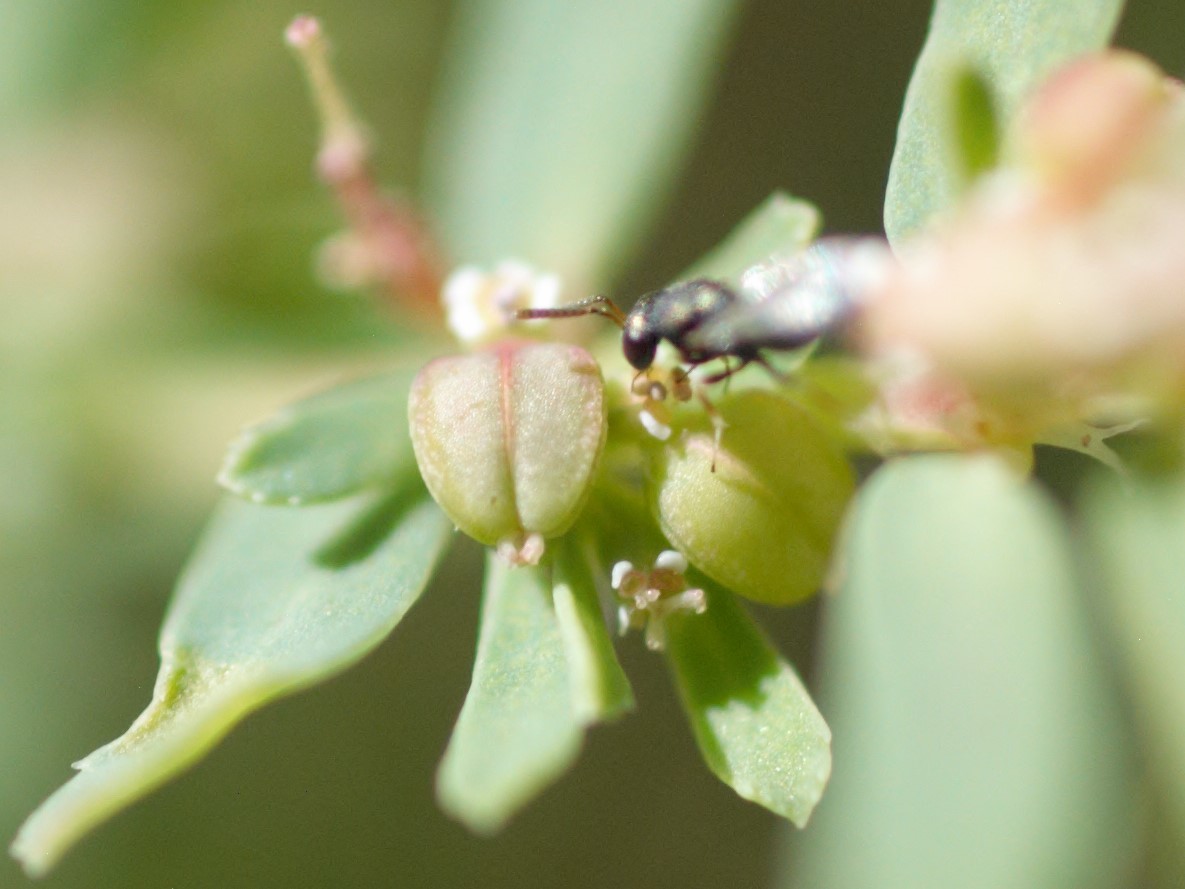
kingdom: Animalia
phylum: Arthropoda
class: Insecta
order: Hymenoptera
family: Pteromalini
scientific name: Pteromalini
